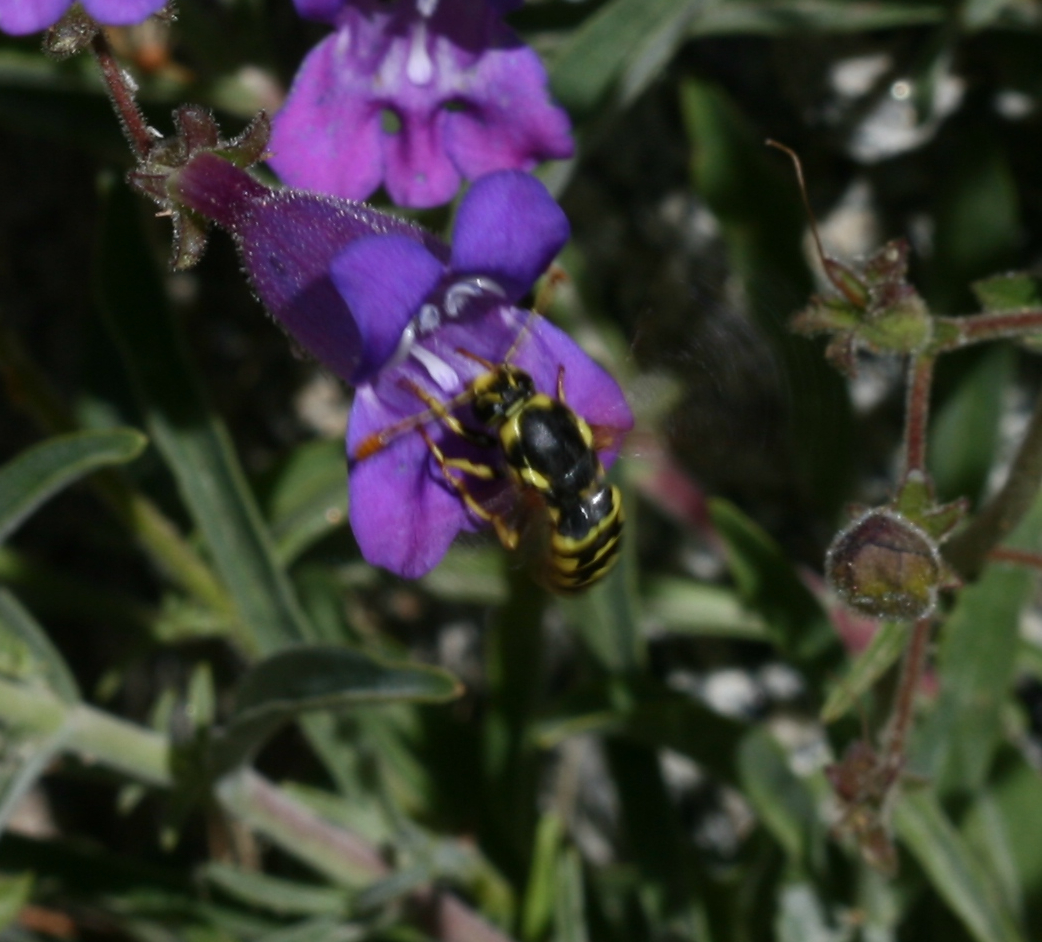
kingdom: Animalia
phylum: Arthropoda
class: Insecta
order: Hymenoptera
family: Masaridae
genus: Pseudomasaris
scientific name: Pseudomasaris vespoides
